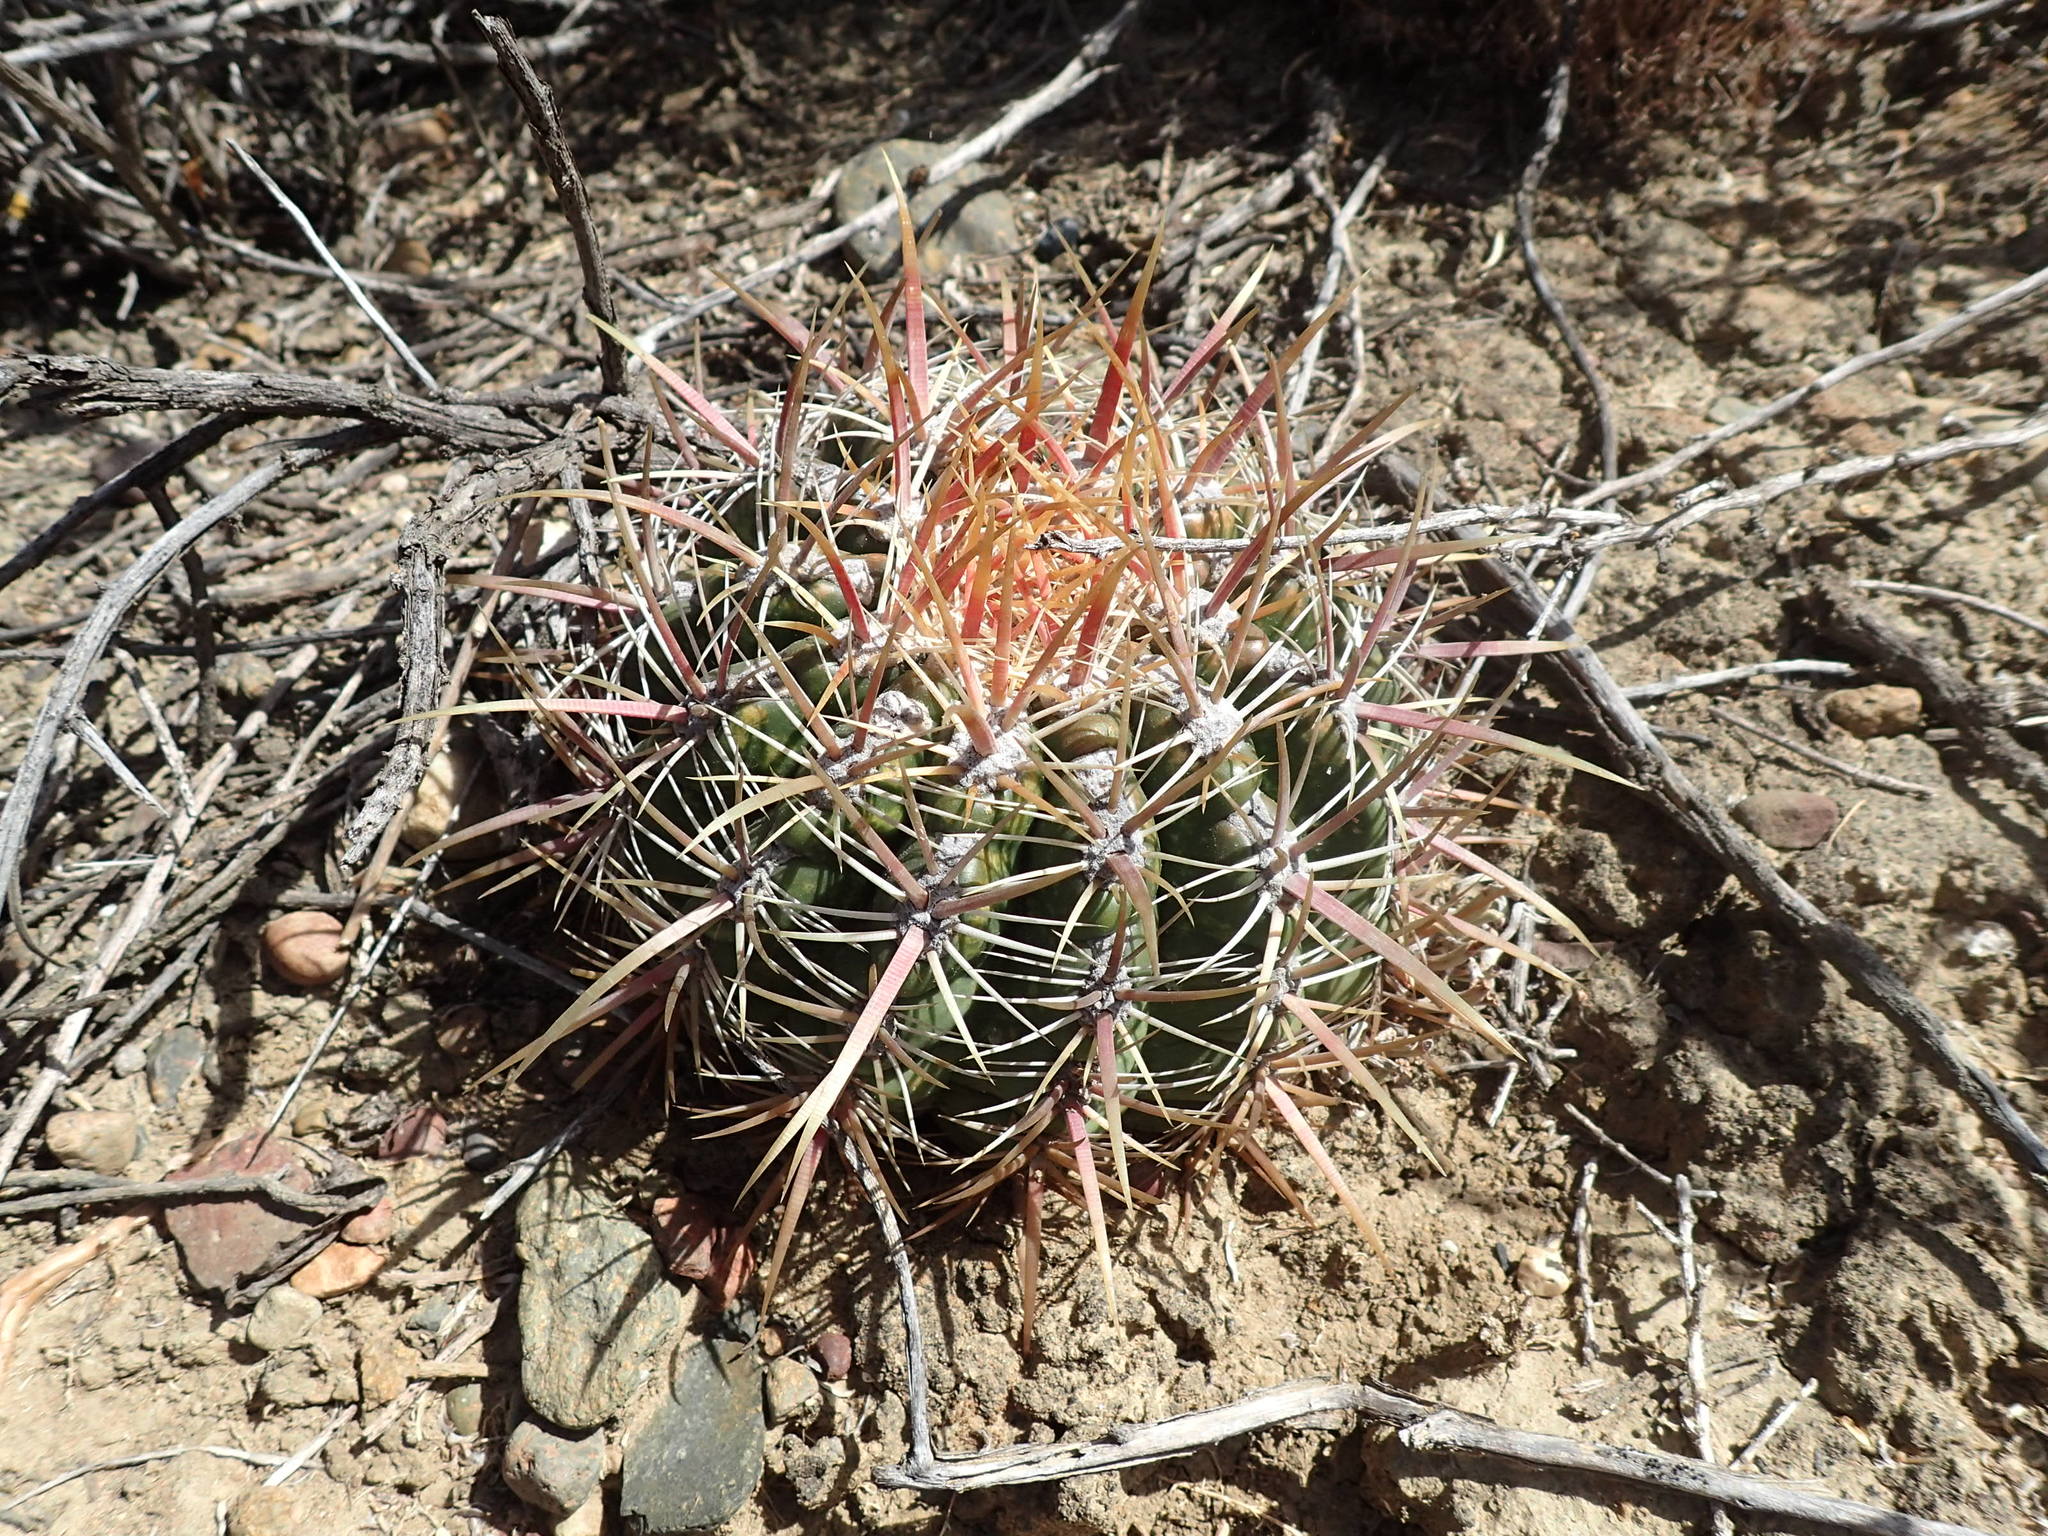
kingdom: Plantae
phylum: Tracheophyta
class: Magnoliopsida
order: Caryophyllales
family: Cactaceae
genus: Ferocactus
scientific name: Ferocactus viridescens
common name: San diego barrel cactus
